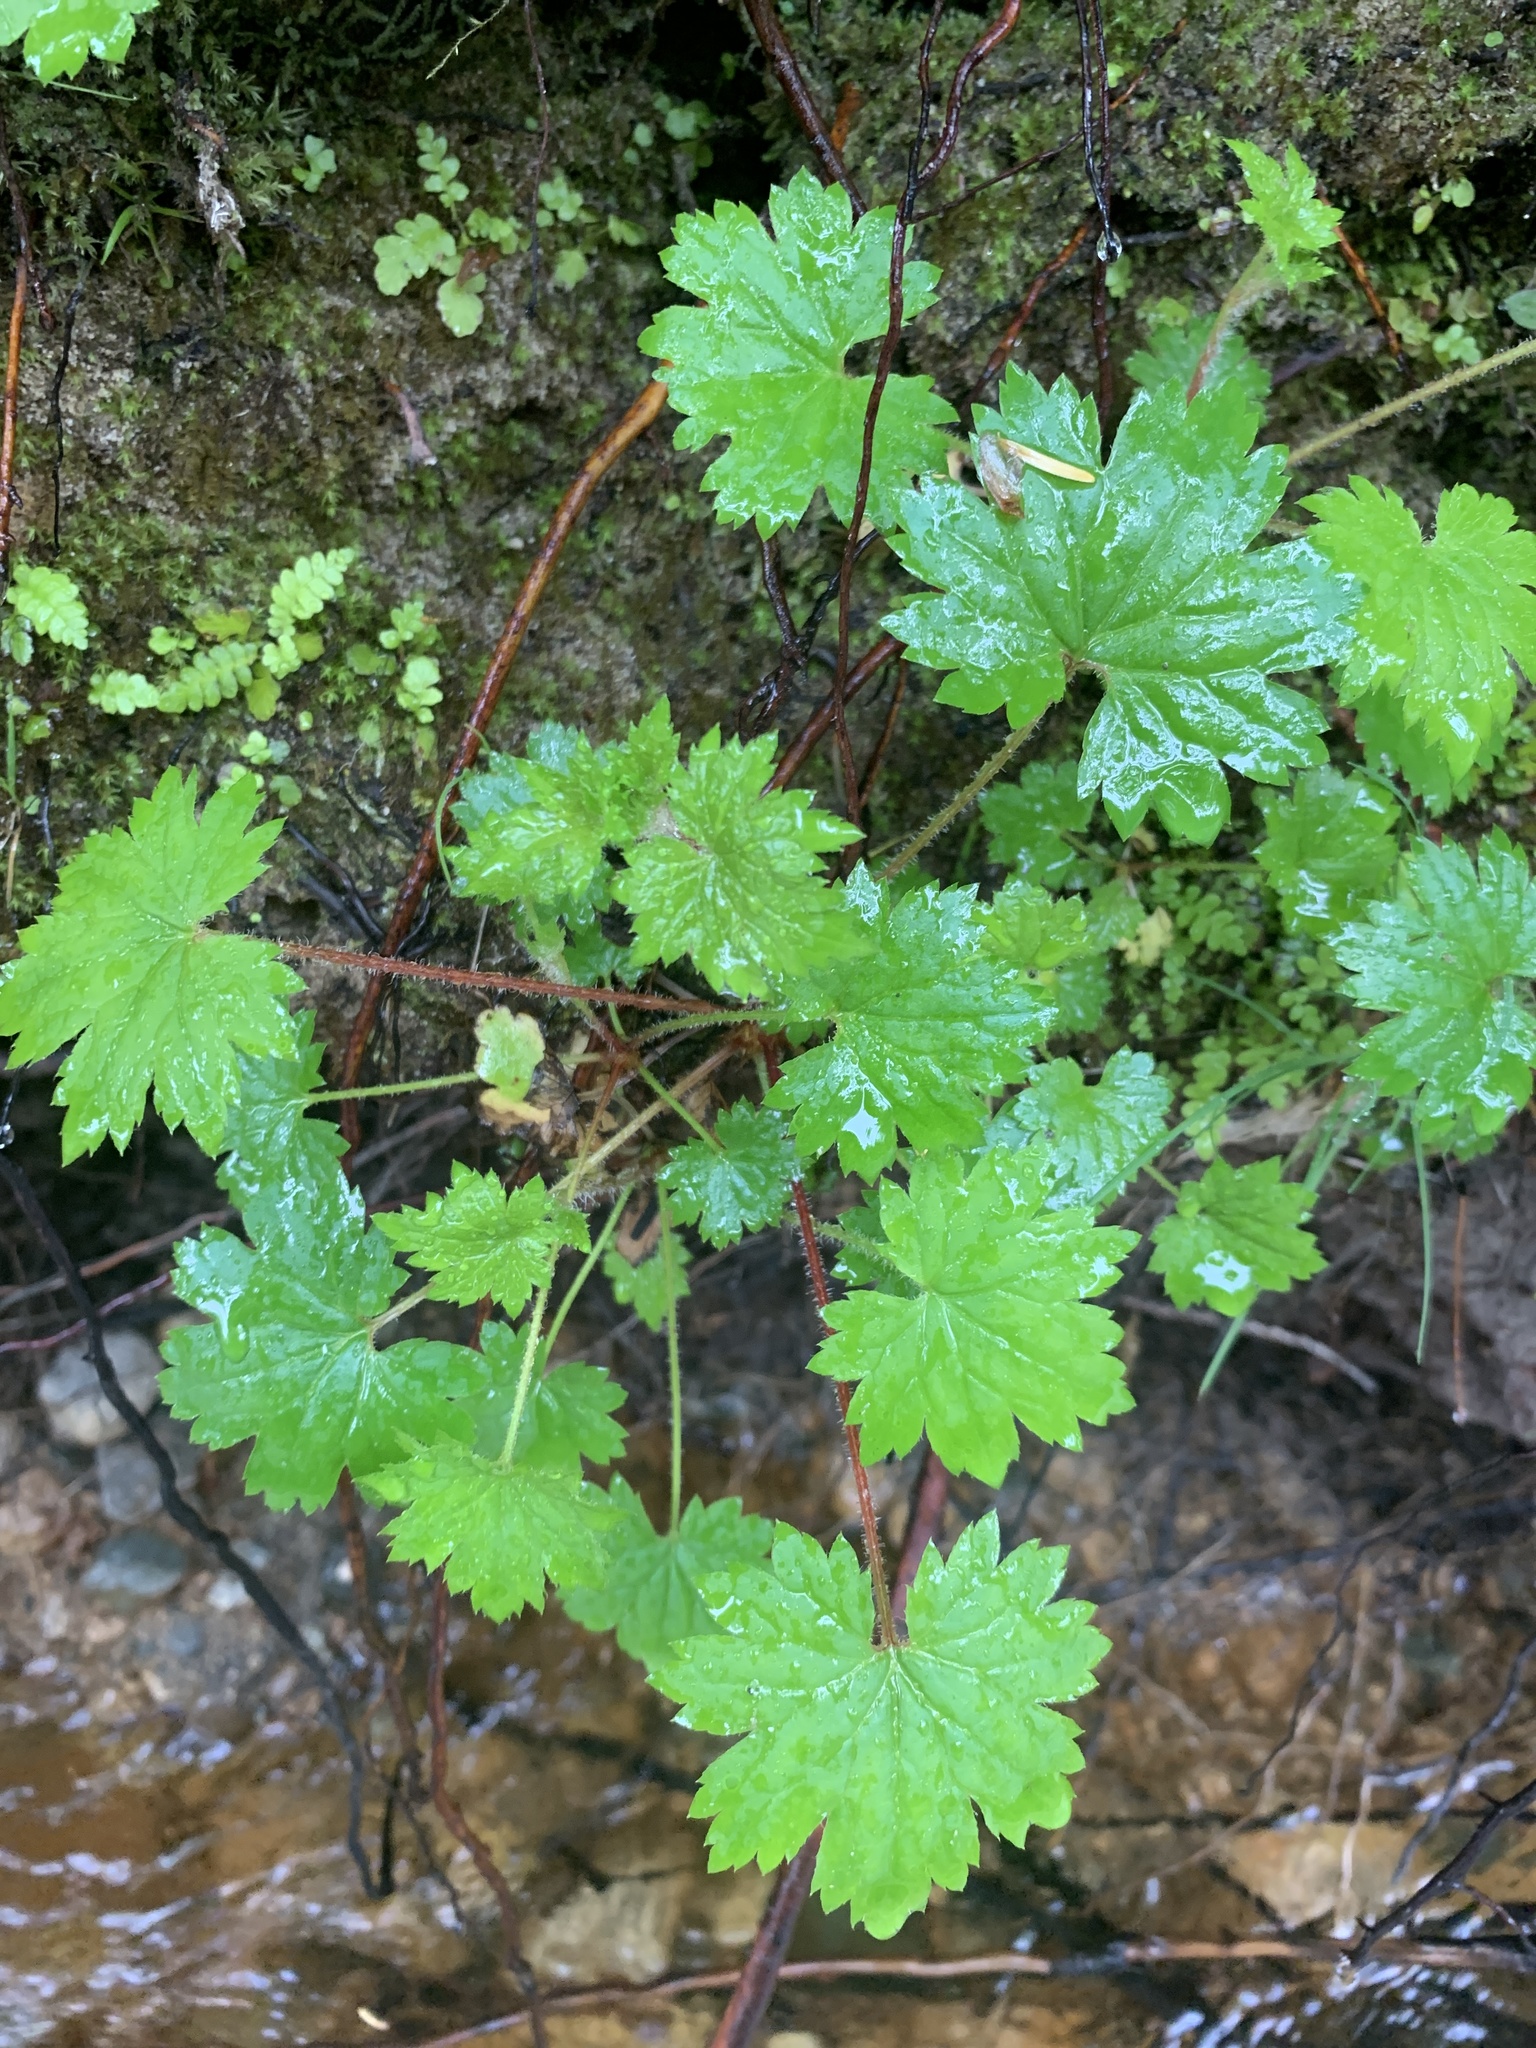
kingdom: Plantae
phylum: Tracheophyta
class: Magnoliopsida
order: Saxifragales
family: Saxifragaceae
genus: Boykinia
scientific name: Boykinia occidentalis
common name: Coast boykinia
